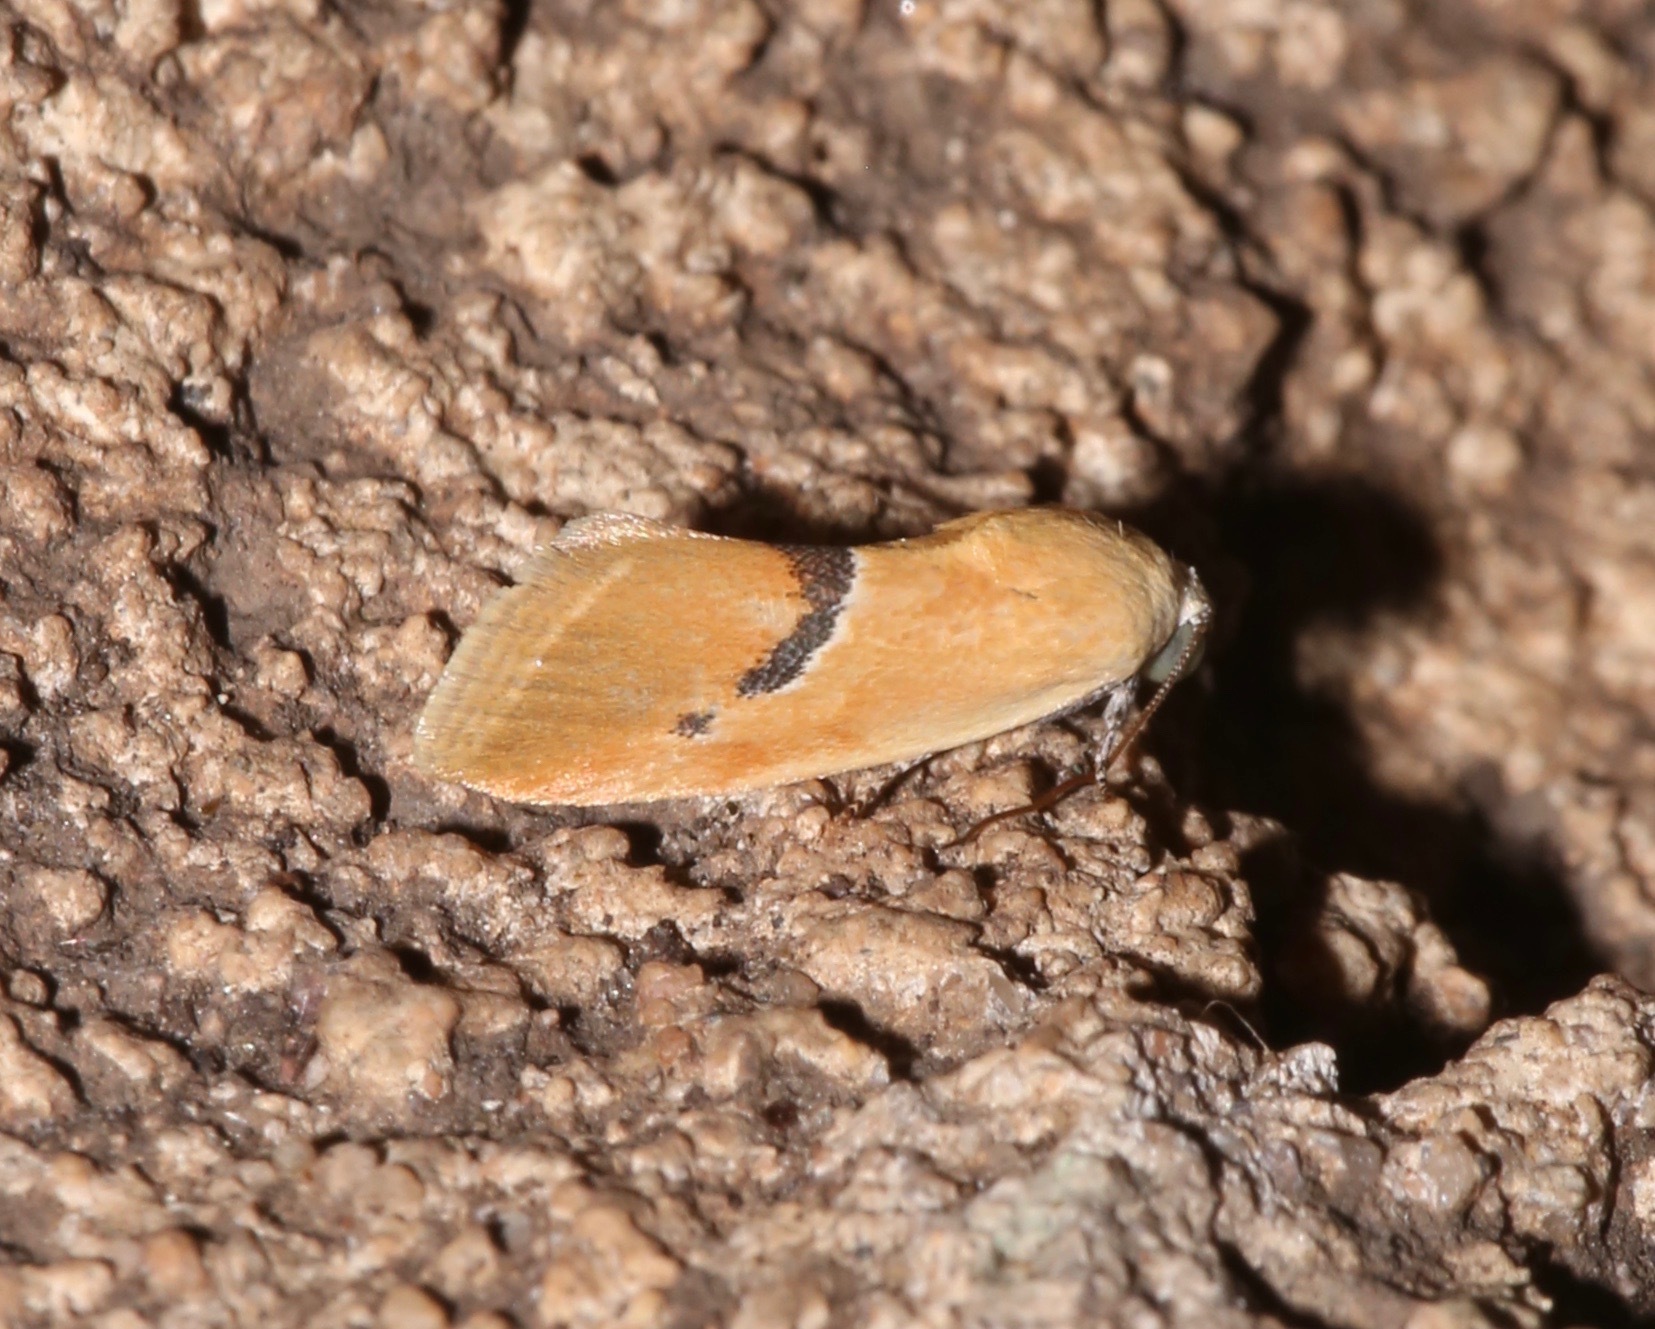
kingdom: Animalia
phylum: Arthropoda
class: Insecta
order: Lepidoptera
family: Noctuidae
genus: Ponometia
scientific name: Ponometia venustula
